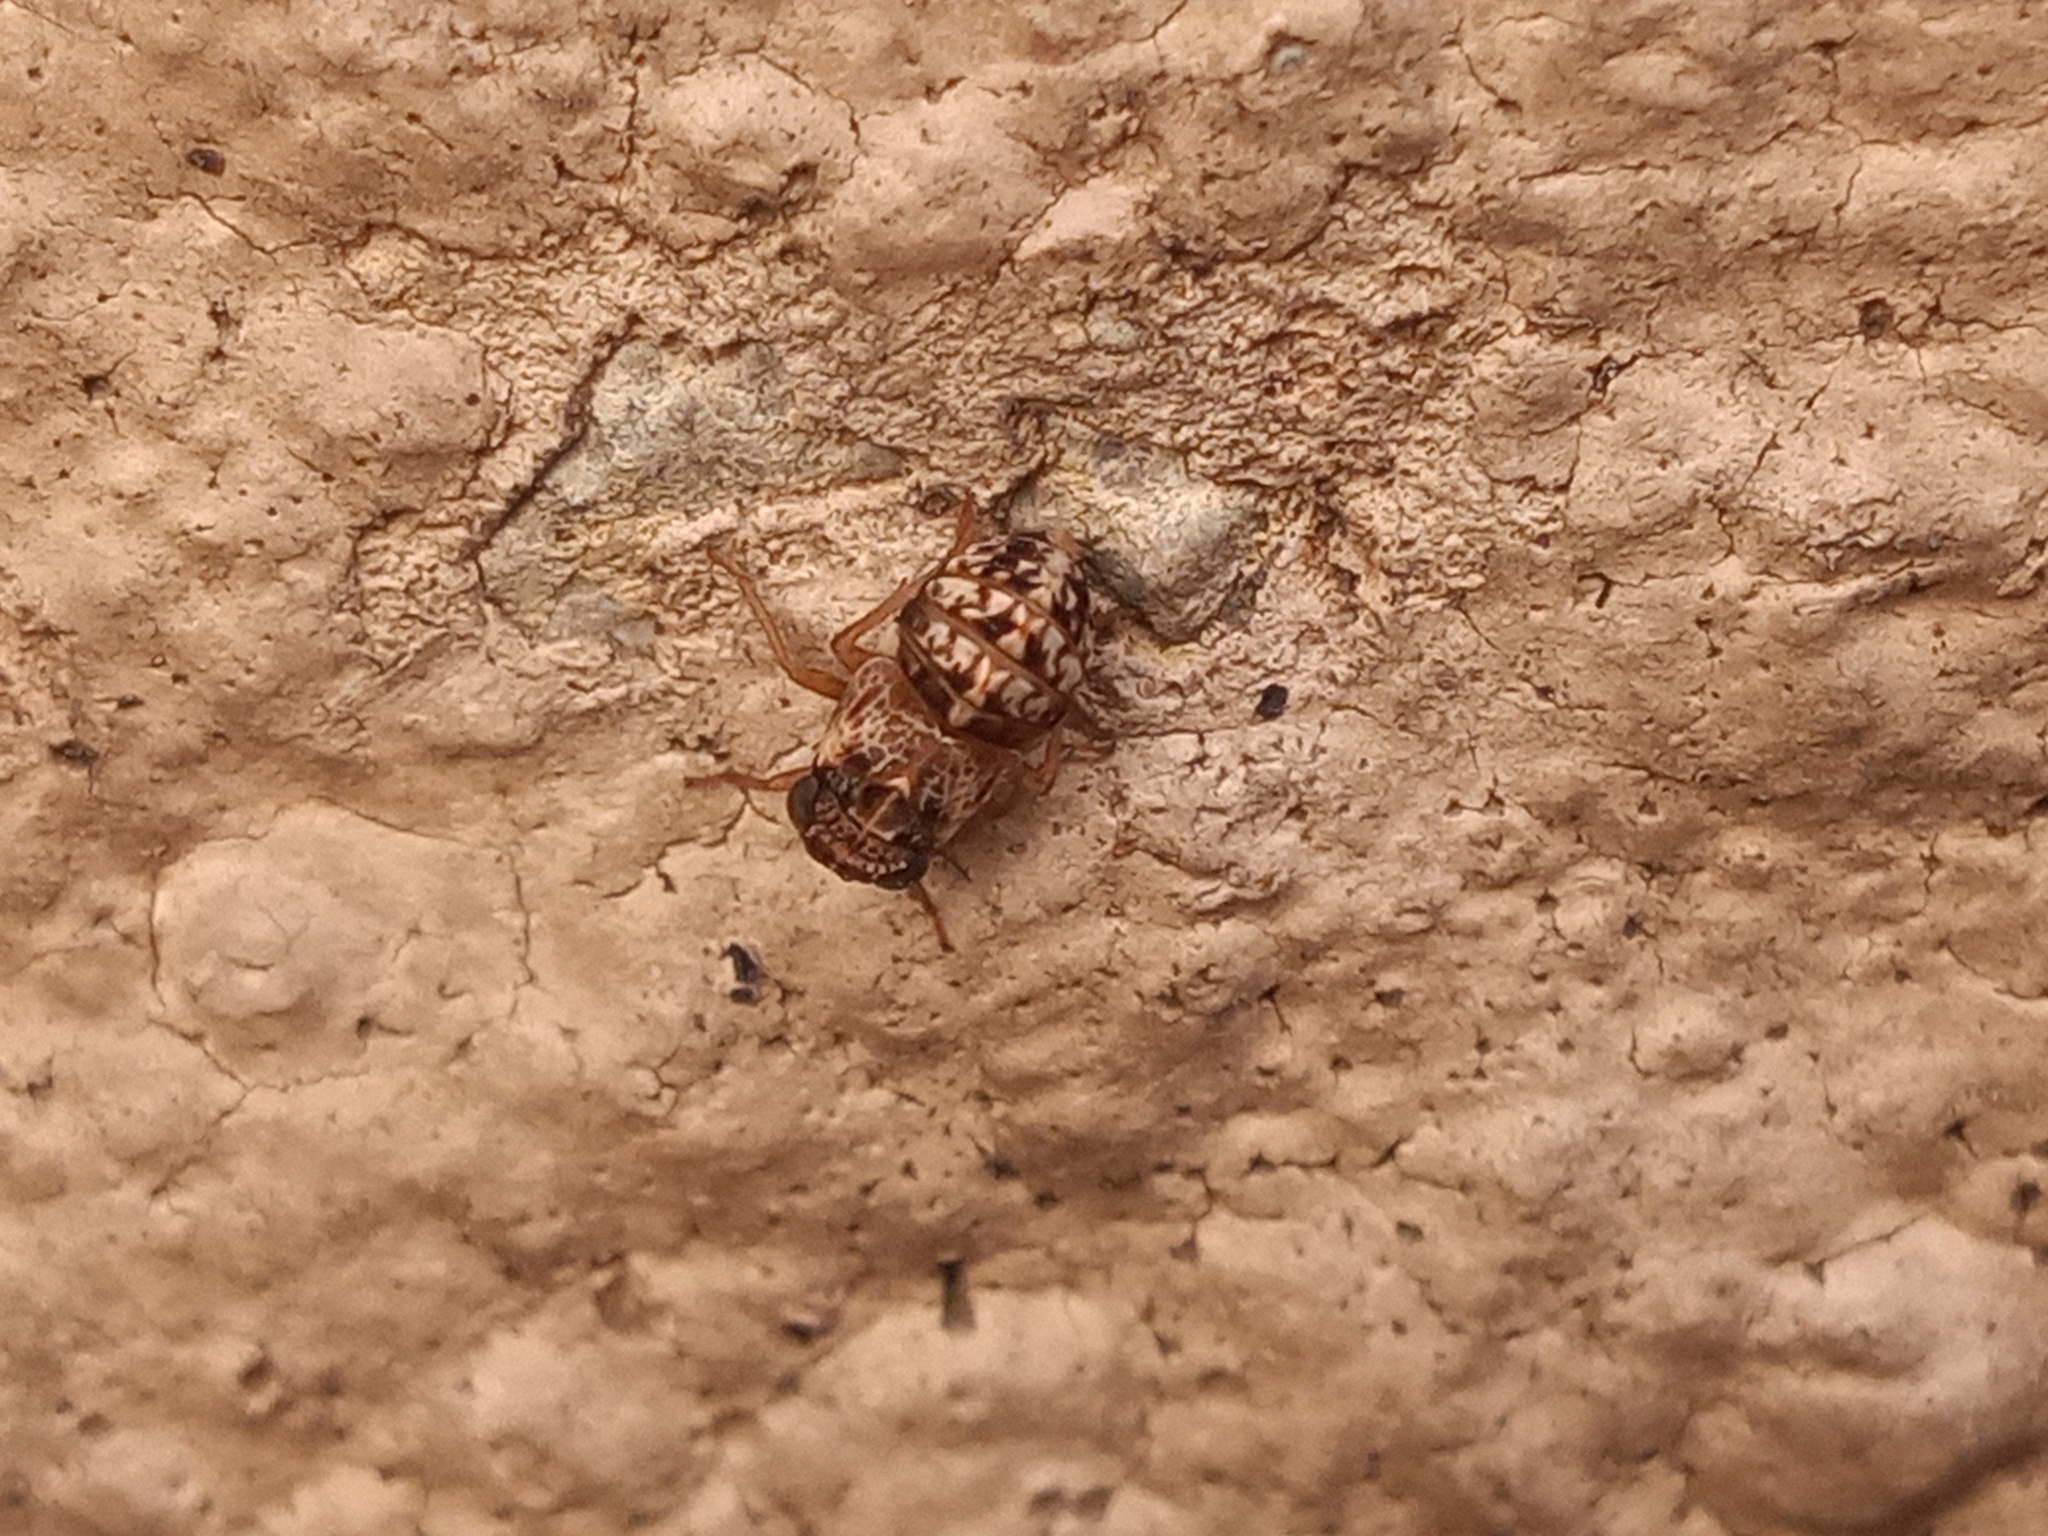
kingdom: Animalia
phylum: Arthropoda
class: Insecta
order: Hemiptera
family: Caliscelidae
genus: Bruchomorpha
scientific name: Bruchomorpha decorata
